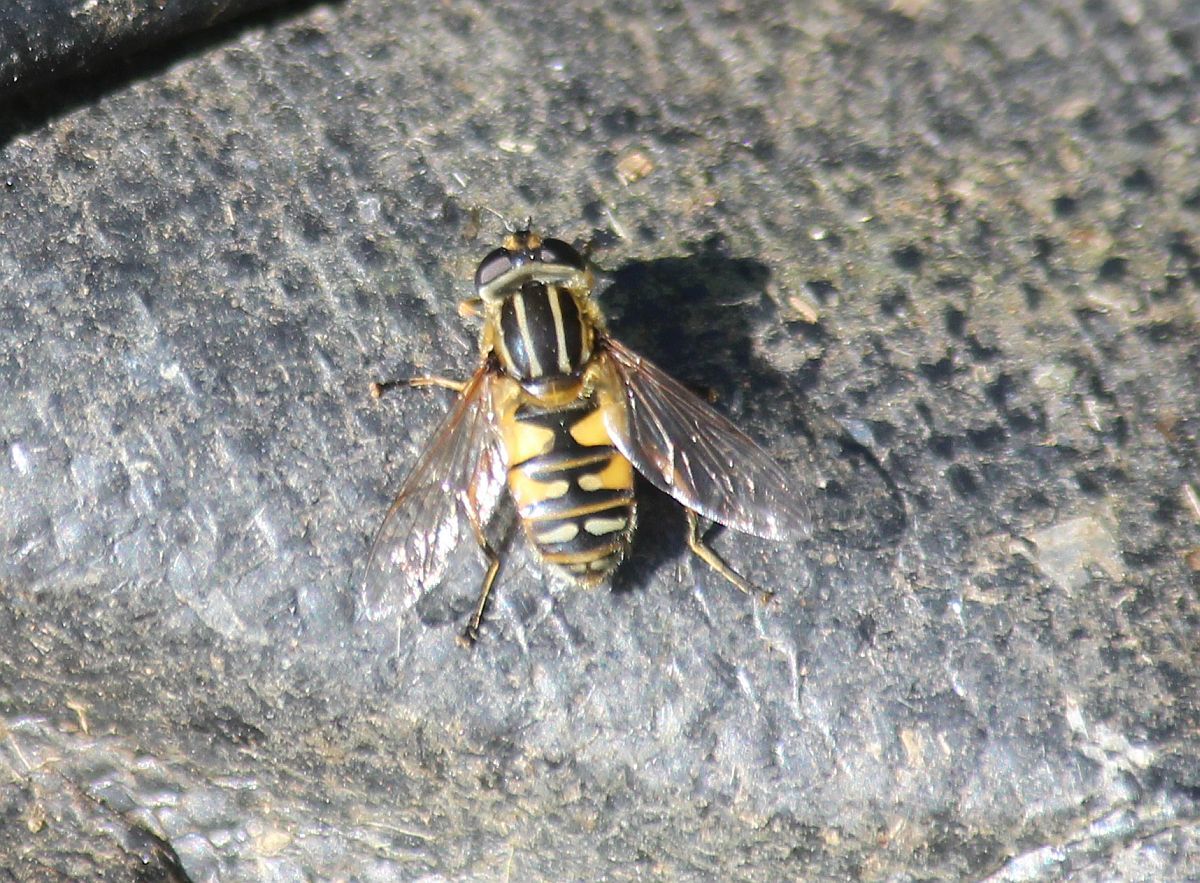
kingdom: Animalia
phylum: Arthropoda
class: Insecta
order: Diptera
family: Syrphidae
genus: Helophilus
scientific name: Helophilus pendulus
